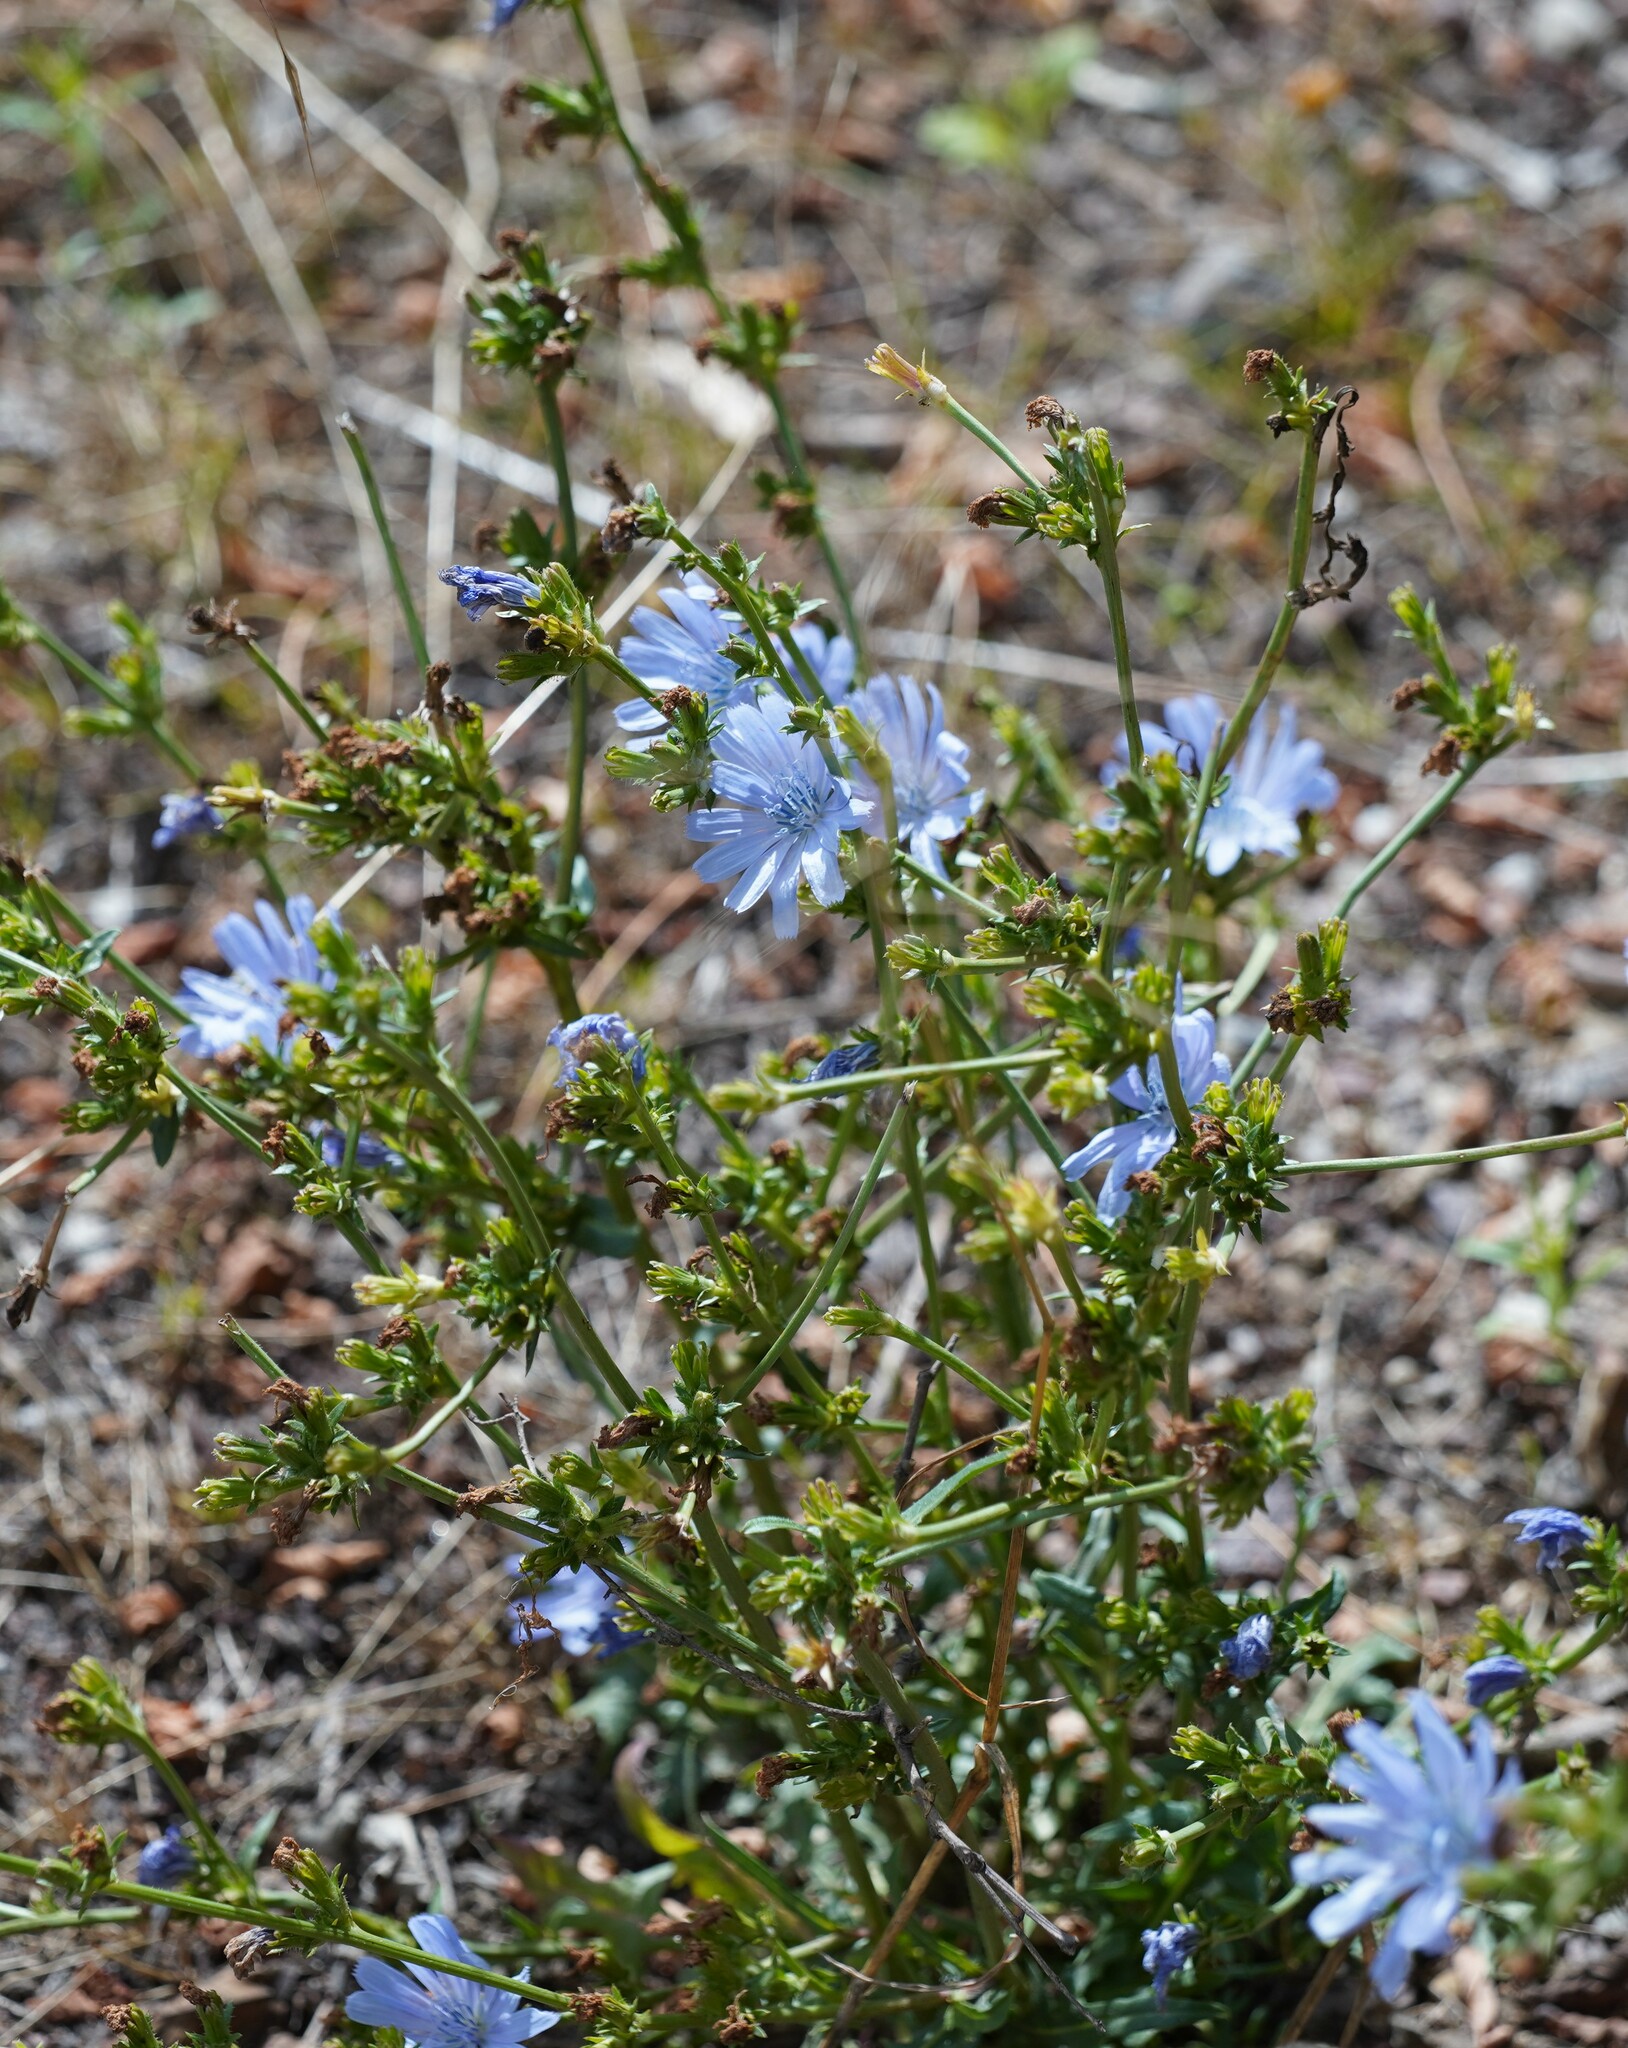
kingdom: Plantae
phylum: Tracheophyta
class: Magnoliopsida
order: Asterales
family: Asteraceae
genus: Cichorium
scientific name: Cichorium intybus
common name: Chicory
